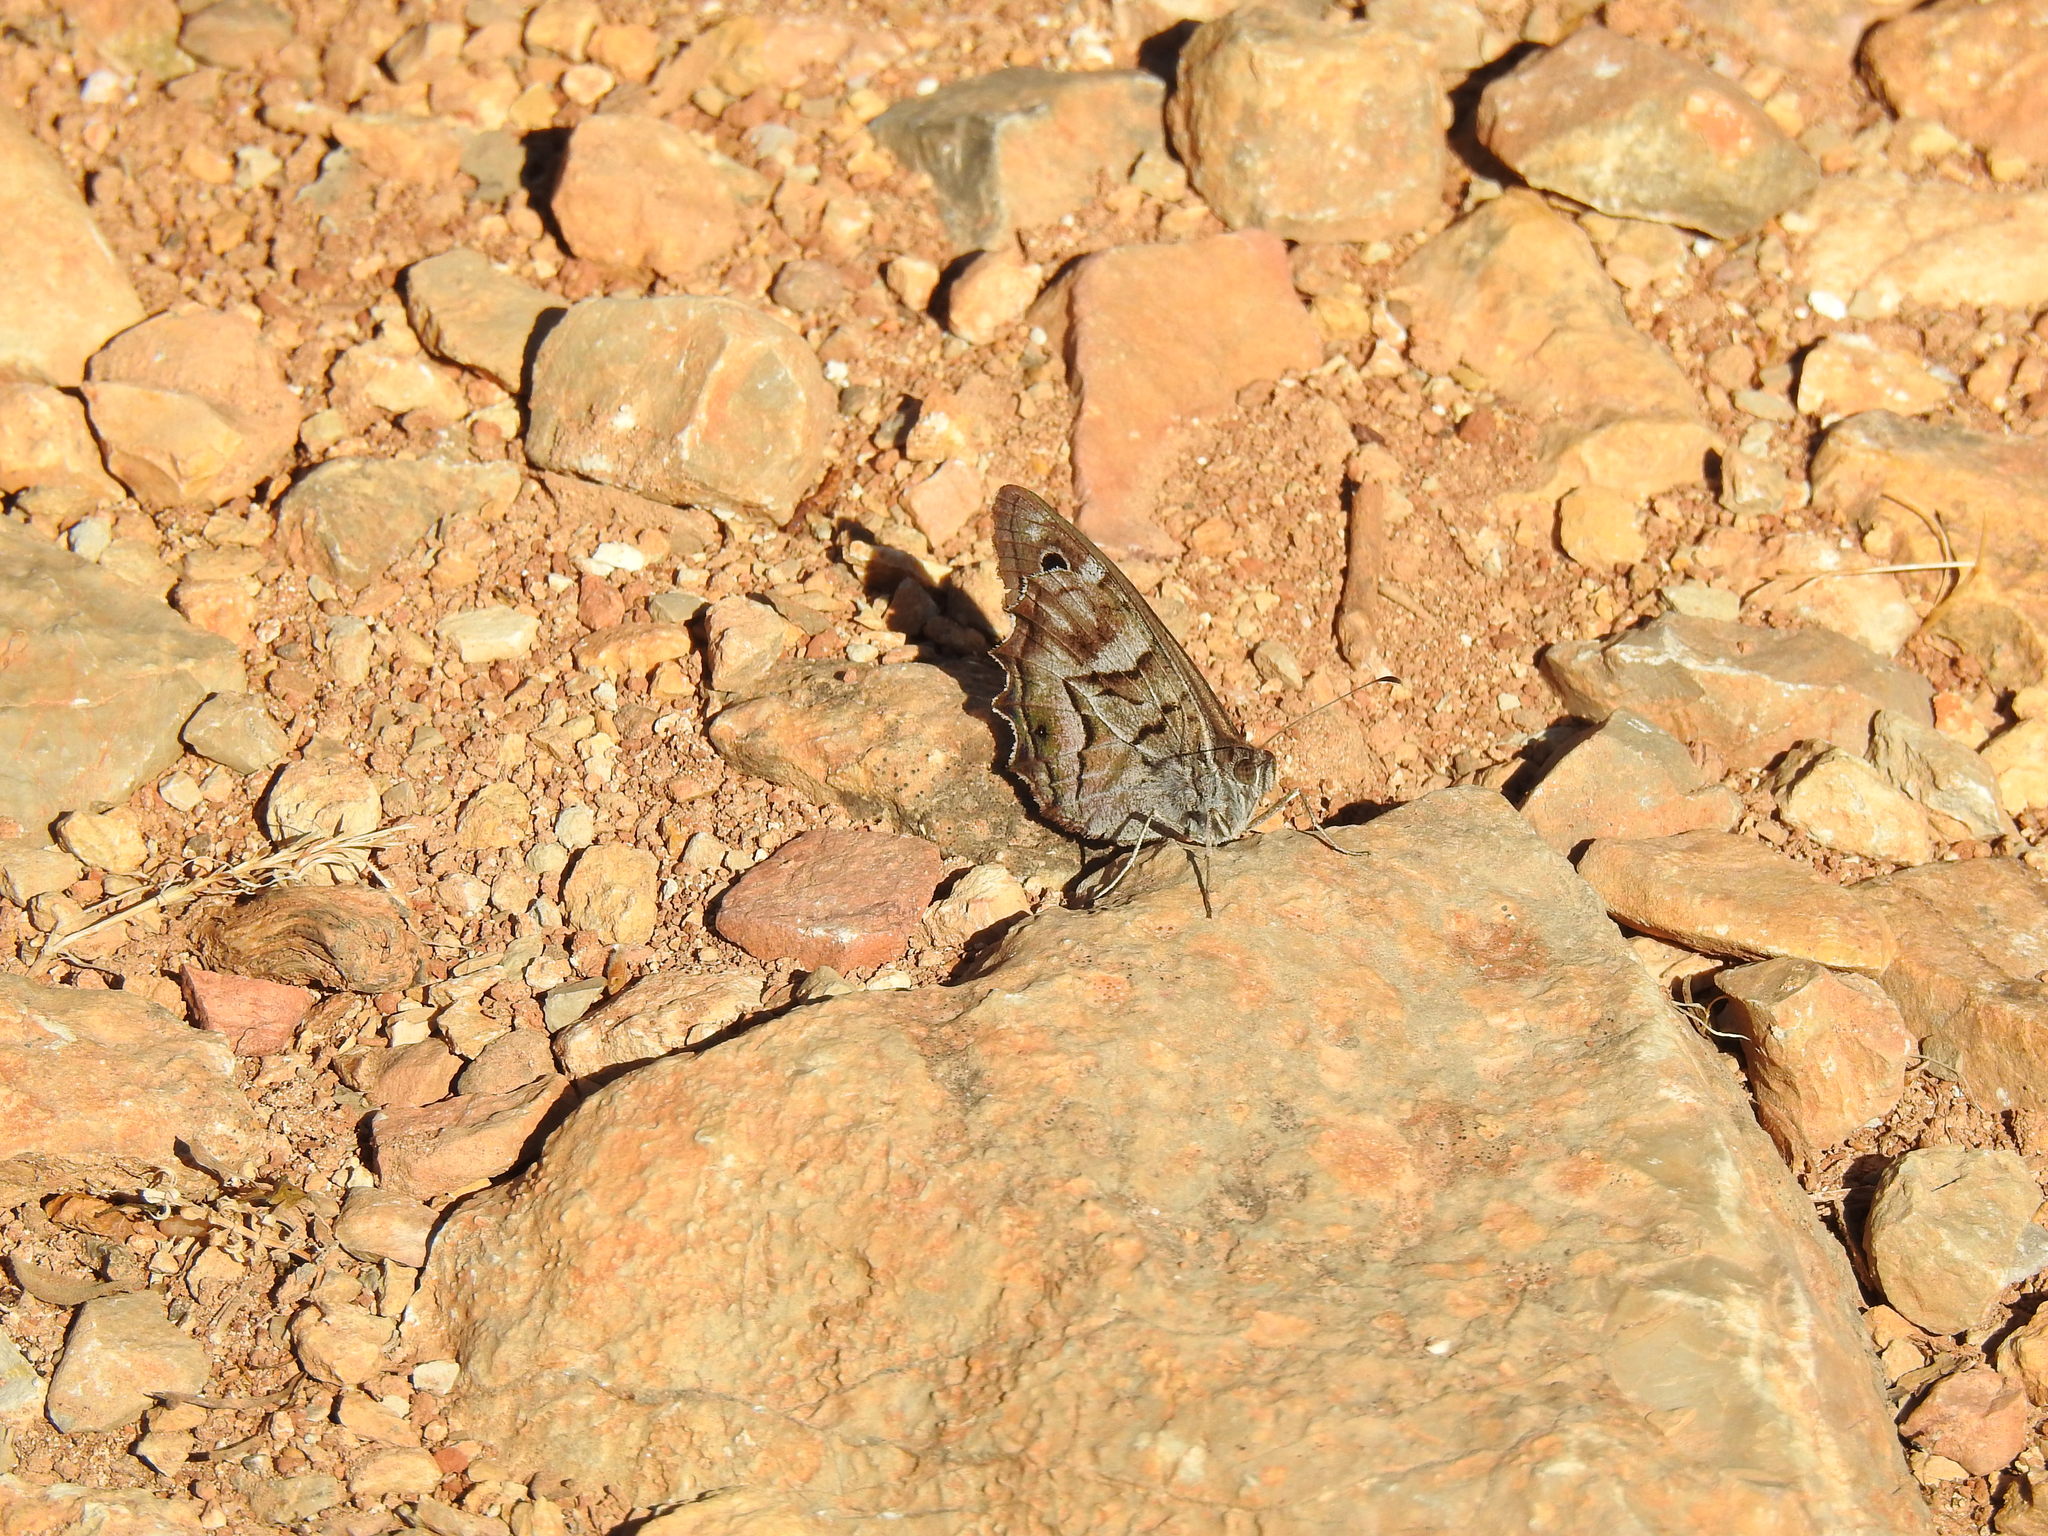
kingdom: Animalia
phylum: Arthropoda
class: Insecta
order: Lepidoptera
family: Nymphalidae
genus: Hipparchia
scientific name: Hipparchia fidia
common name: Striped grayling
